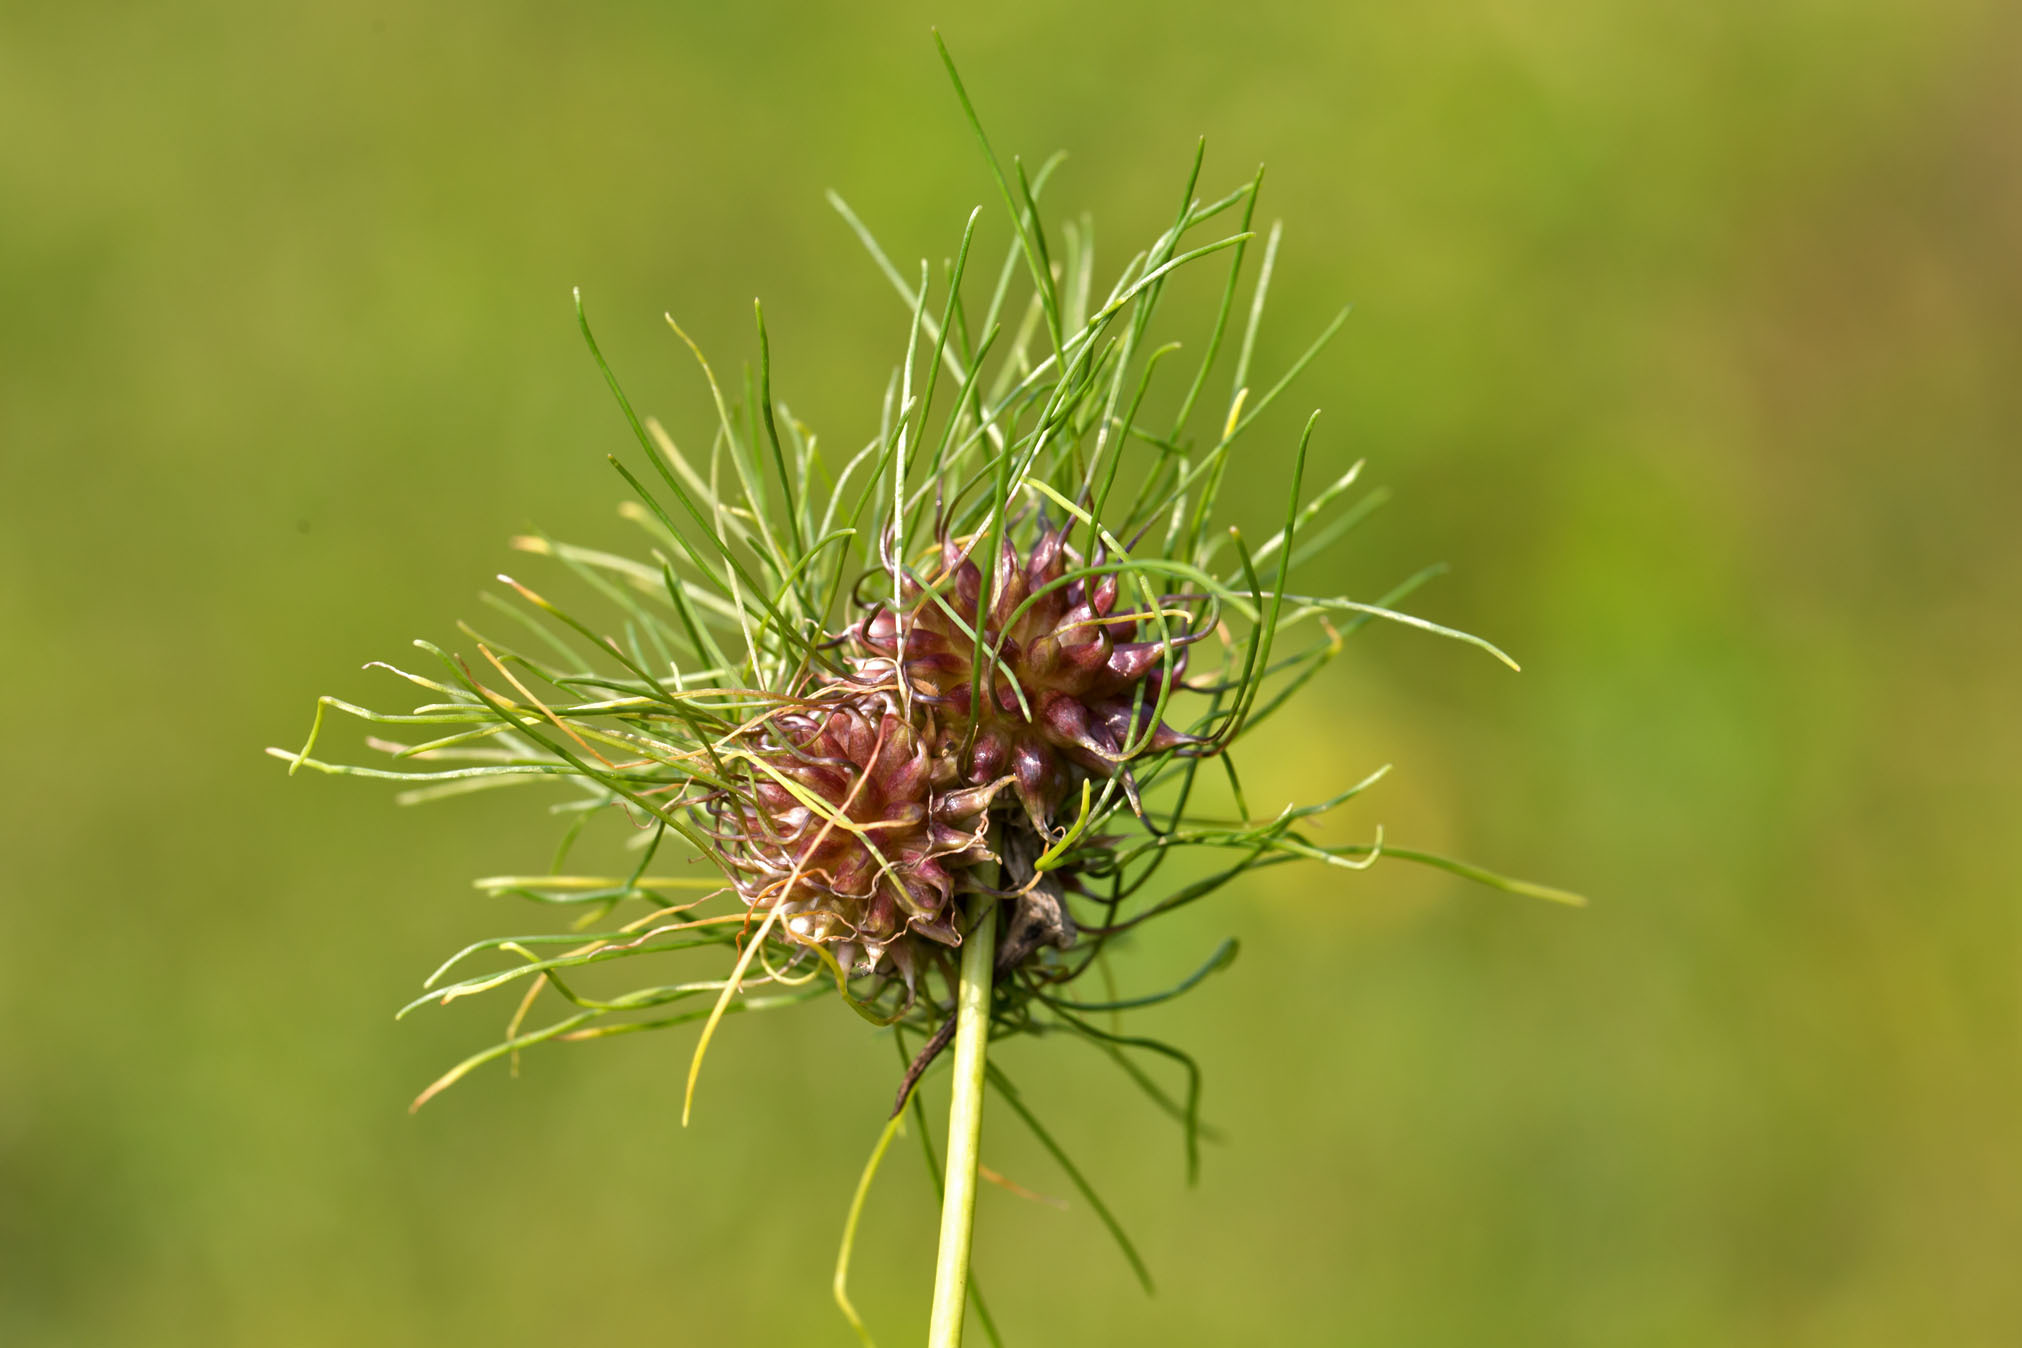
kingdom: Plantae
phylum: Tracheophyta
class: Liliopsida
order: Asparagales
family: Amaryllidaceae
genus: Allium
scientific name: Allium vineale
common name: Crow garlic
